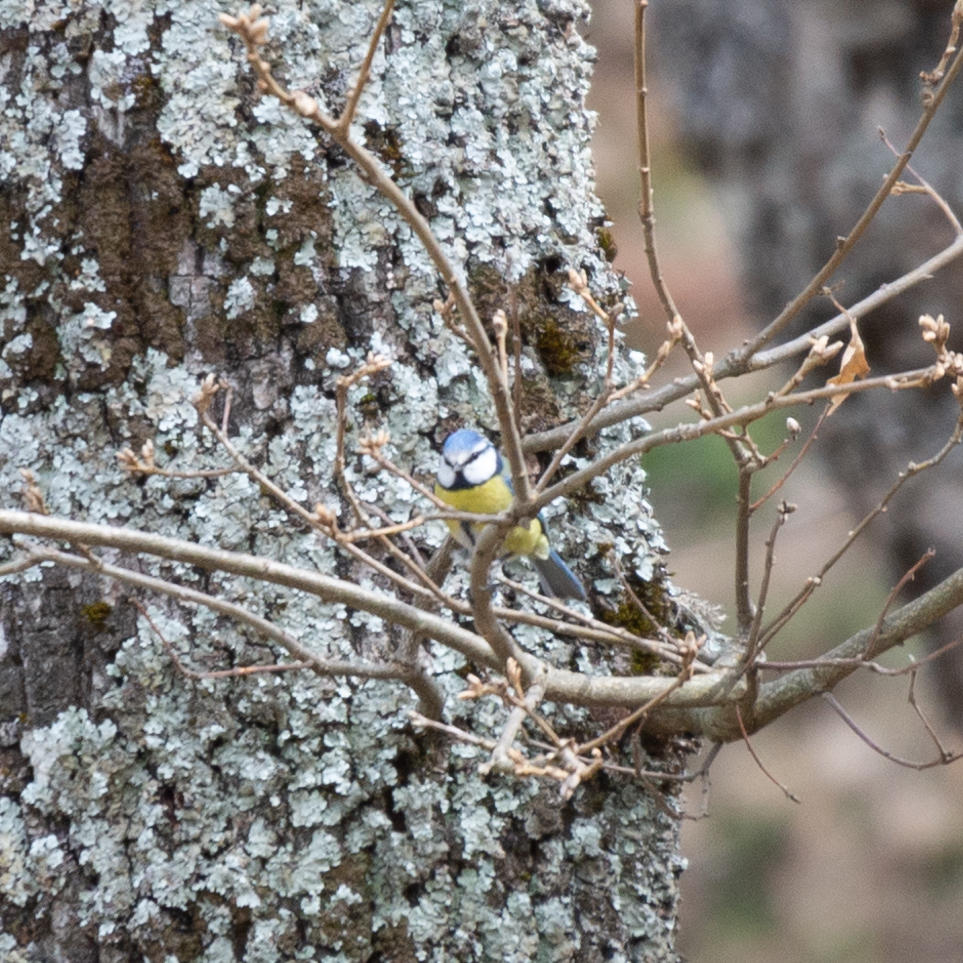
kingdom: Animalia
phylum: Chordata
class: Aves
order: Passeriformes
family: Paridae
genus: Cyanistes
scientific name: Cyanistes caeruleus
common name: Eurasian blue tit
